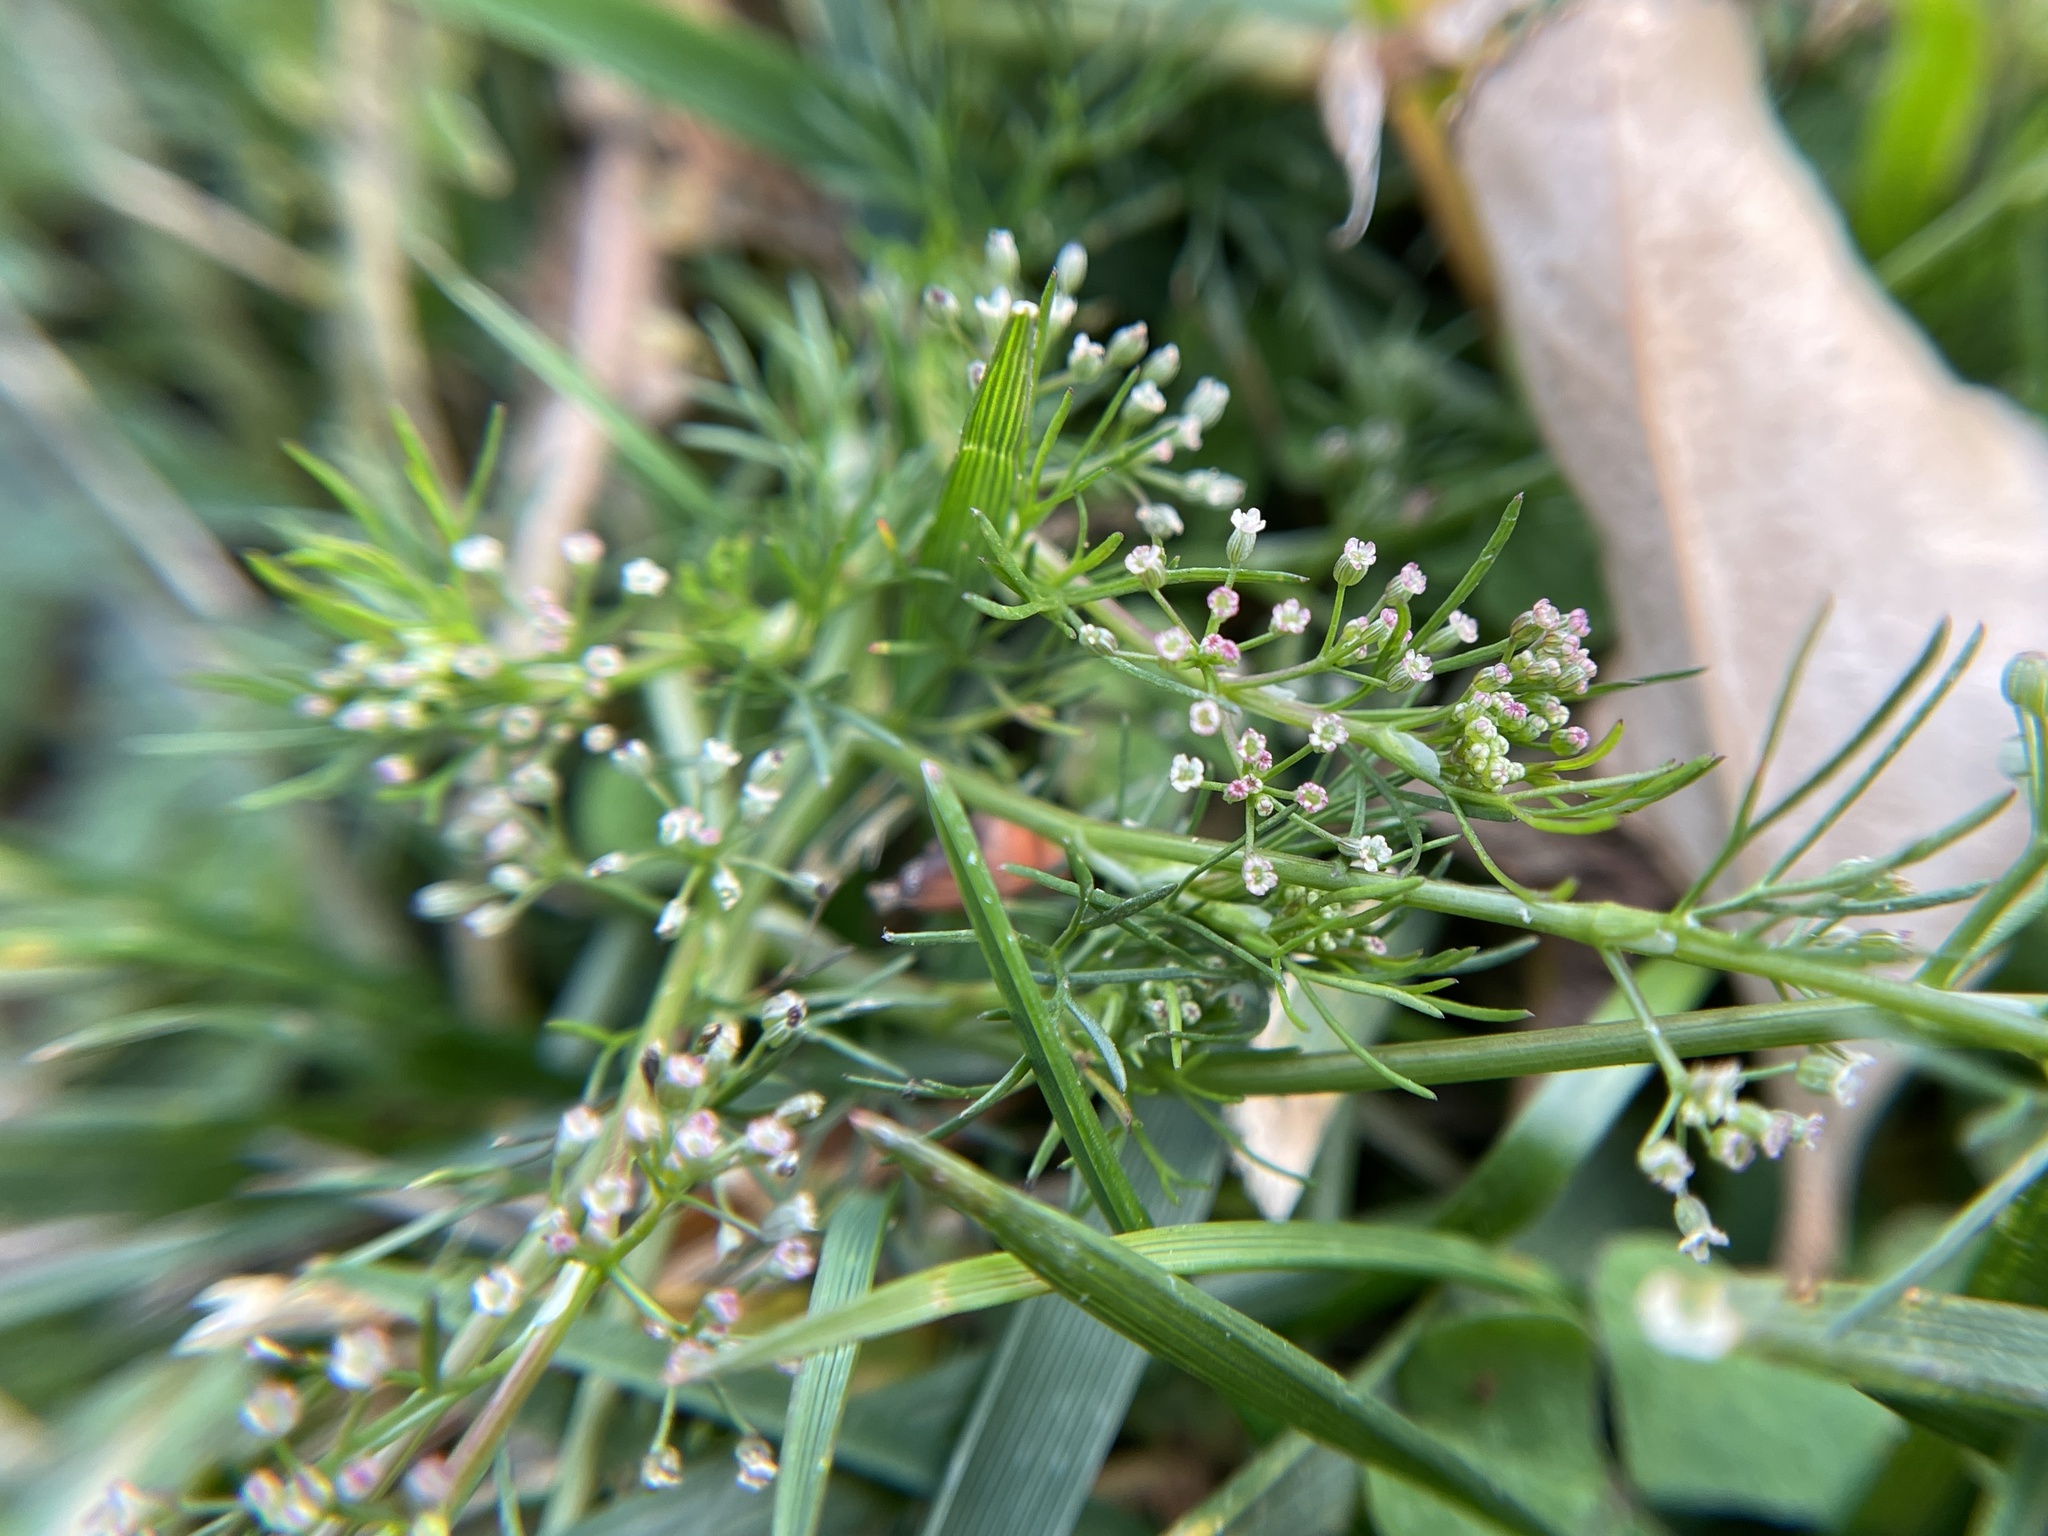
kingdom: Plantae
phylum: Tracheophyta
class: Magnoliopsida
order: Apiales
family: Apiaceae
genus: Cyclospermum
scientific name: Cyclospermum leptophyllum
